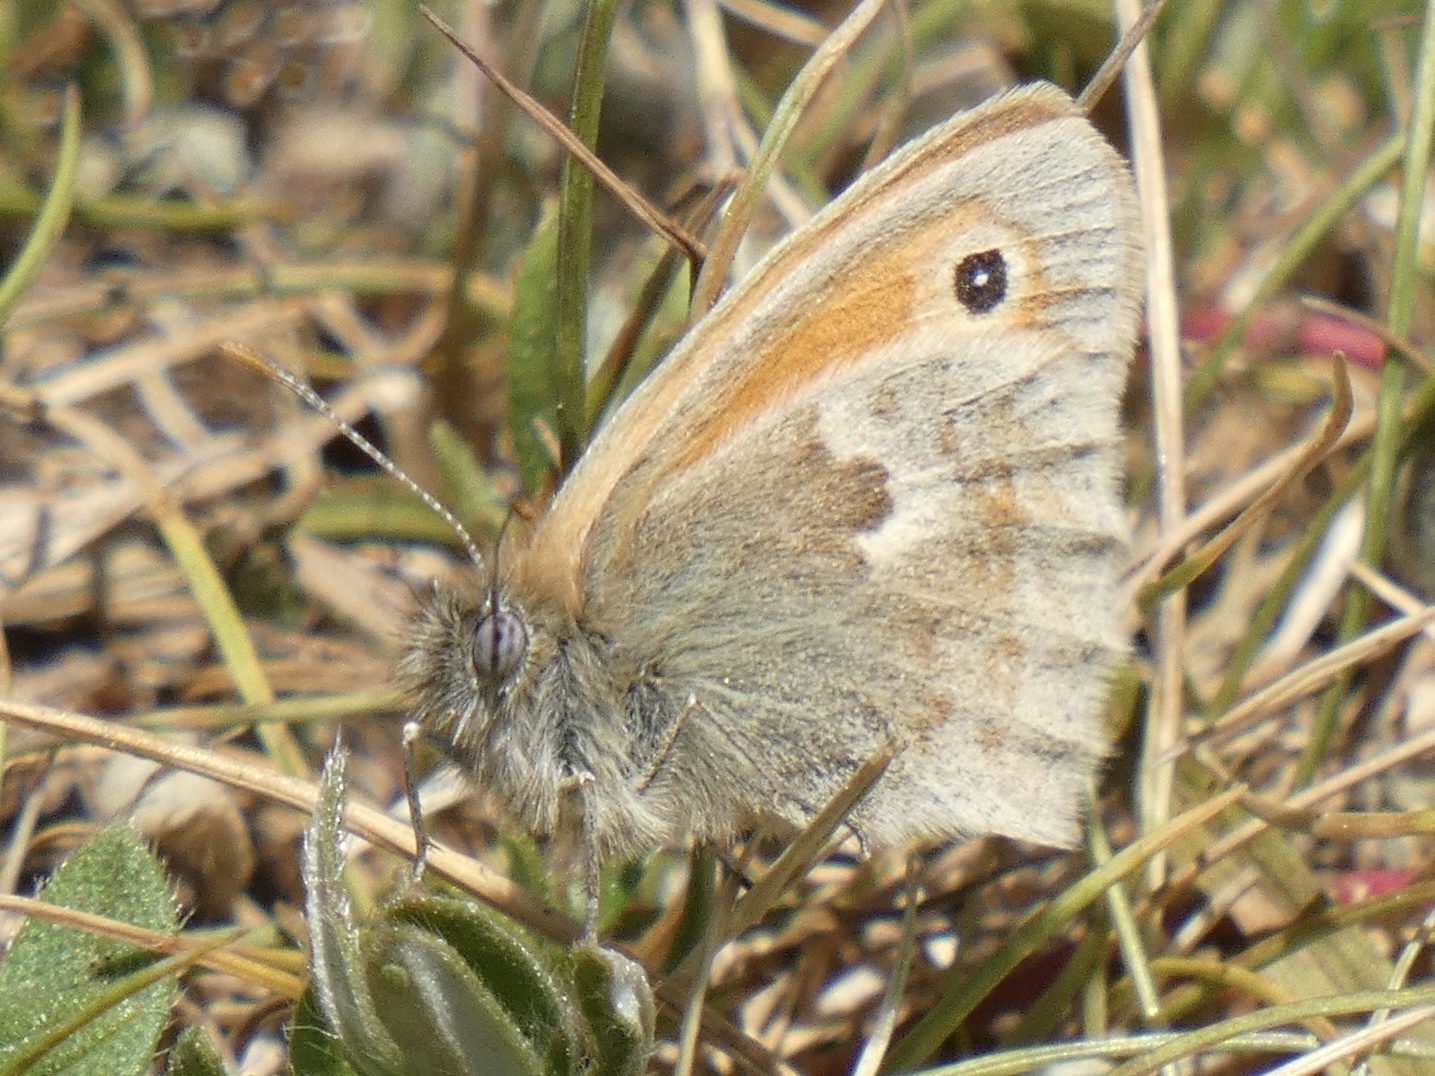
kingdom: Animalia
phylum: Arthropoda
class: Insecta
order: Lepidoptera
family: Nymphalidae
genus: Coenonympha
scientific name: Coenonympha pamphilus
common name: Small heath
